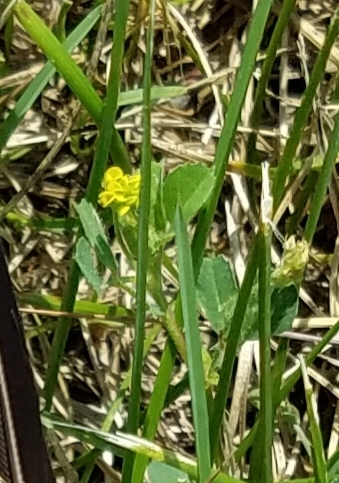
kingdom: Plantae
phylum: Tracheophyta
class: Magnoliopsida
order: Fabales
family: Fabaceae
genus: Medicago
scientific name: Medicago lupulina
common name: Black medick
